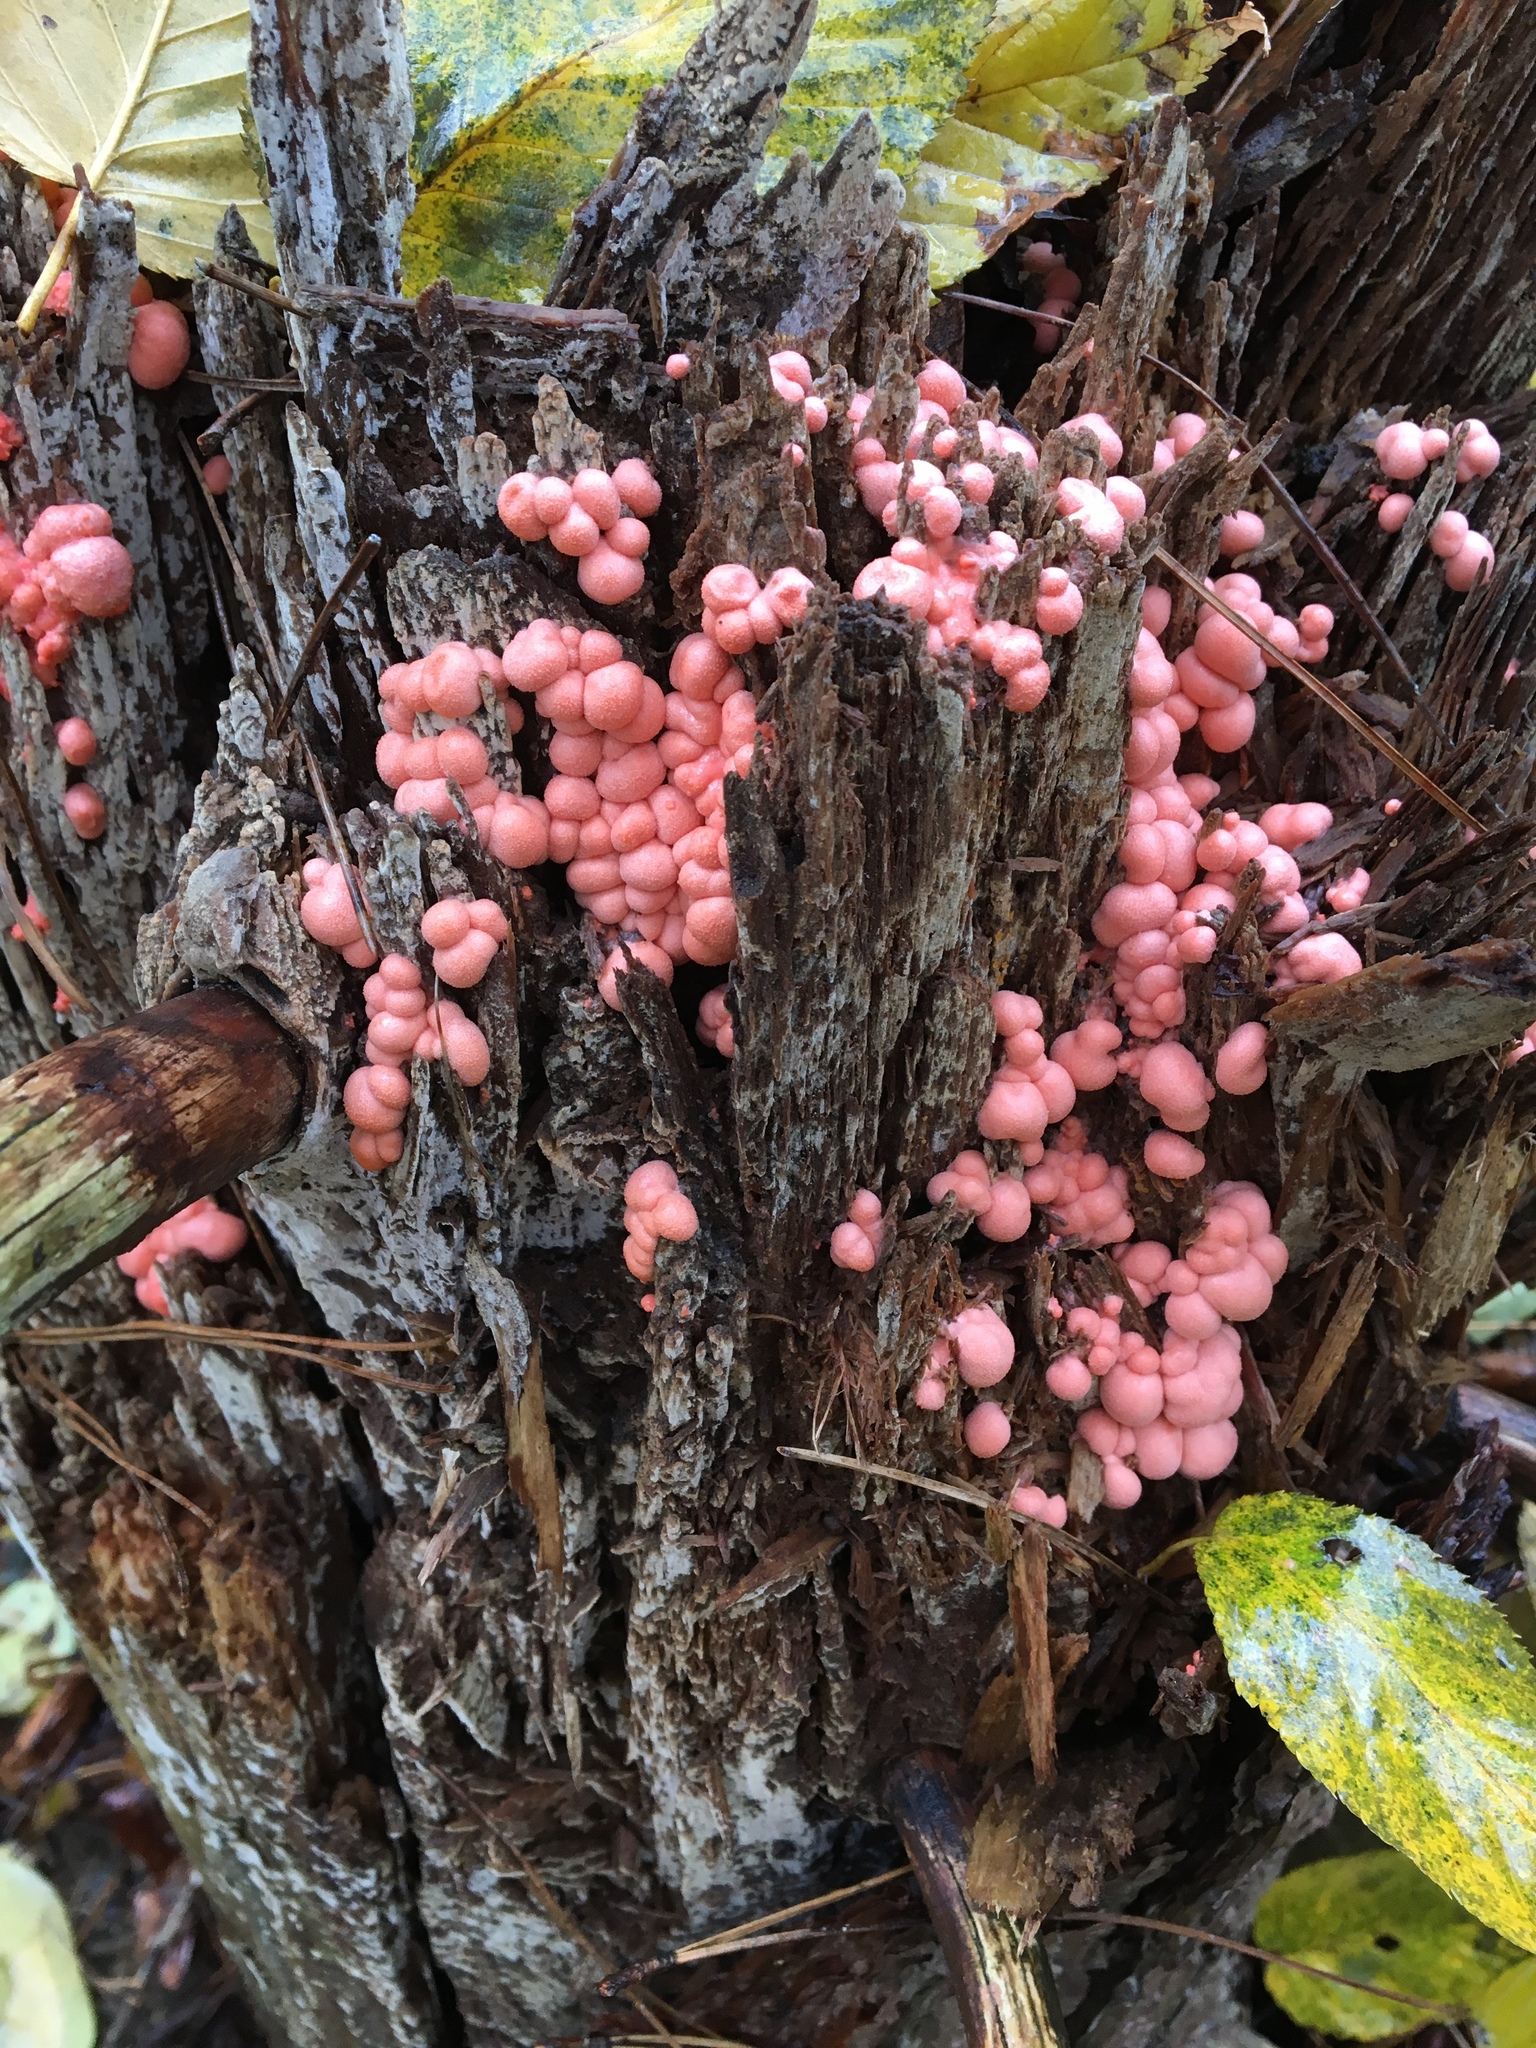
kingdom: Protozoa
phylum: Mycetozoa
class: Myxomycetes
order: Cribrariales
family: Tubiferaceae
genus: Lycogala
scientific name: Lycogala epidendrum
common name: Wolf's milk
